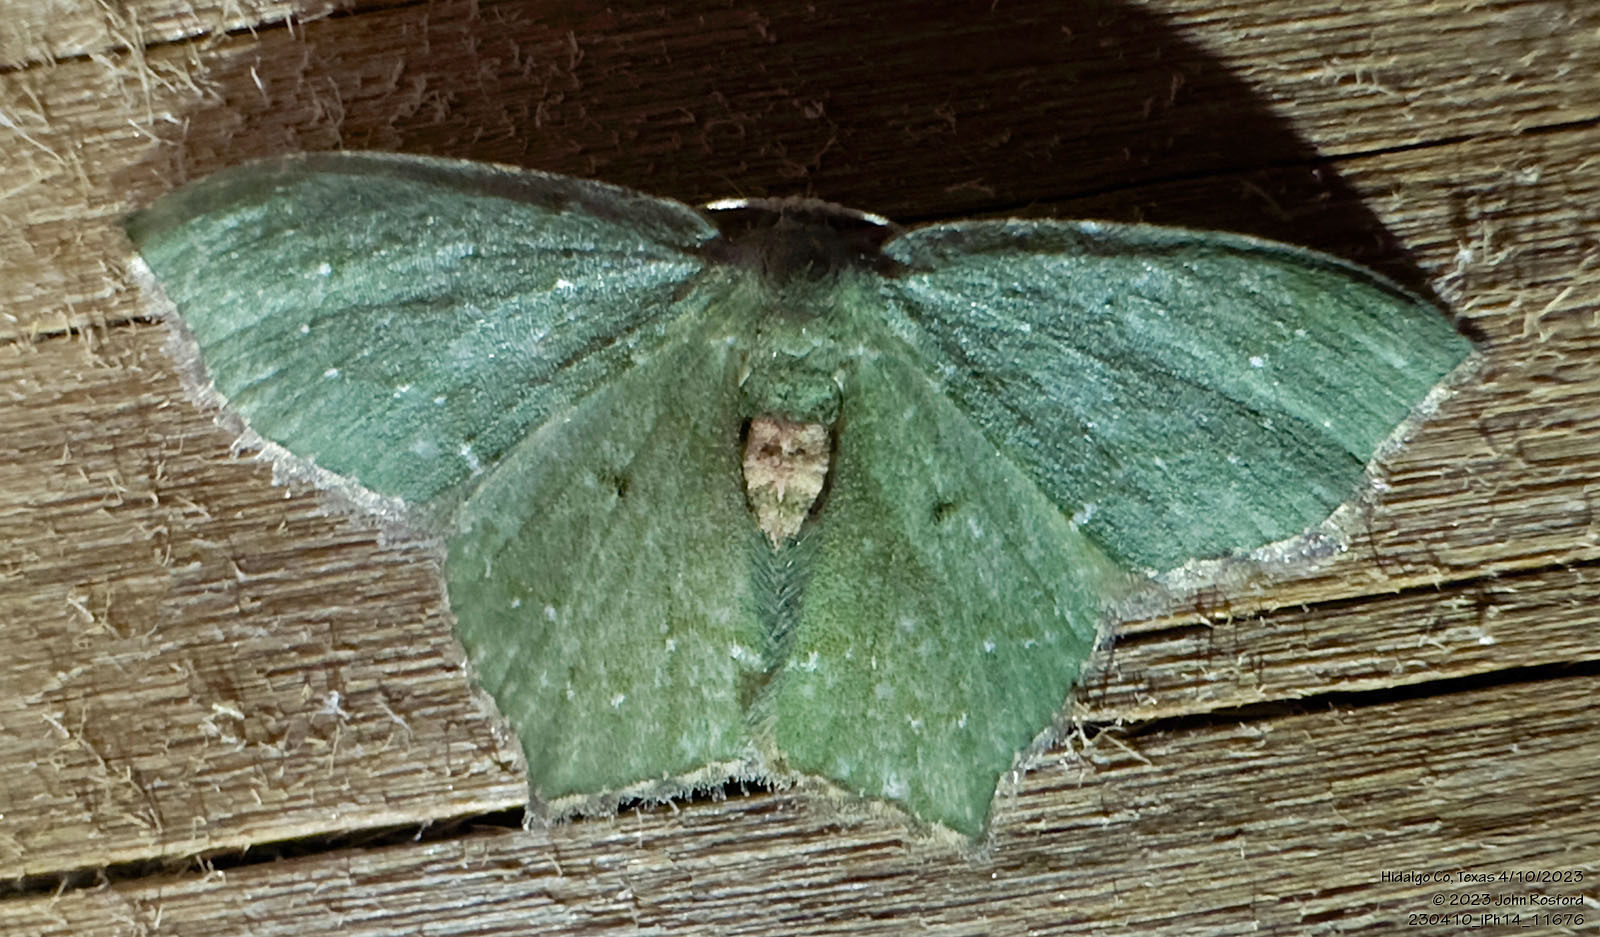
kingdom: Animalia
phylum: Arthropoda
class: Insecta
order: Lepidoptera
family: Geometridae
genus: Chloropteryx
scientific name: Chloropteryx nordicaria
